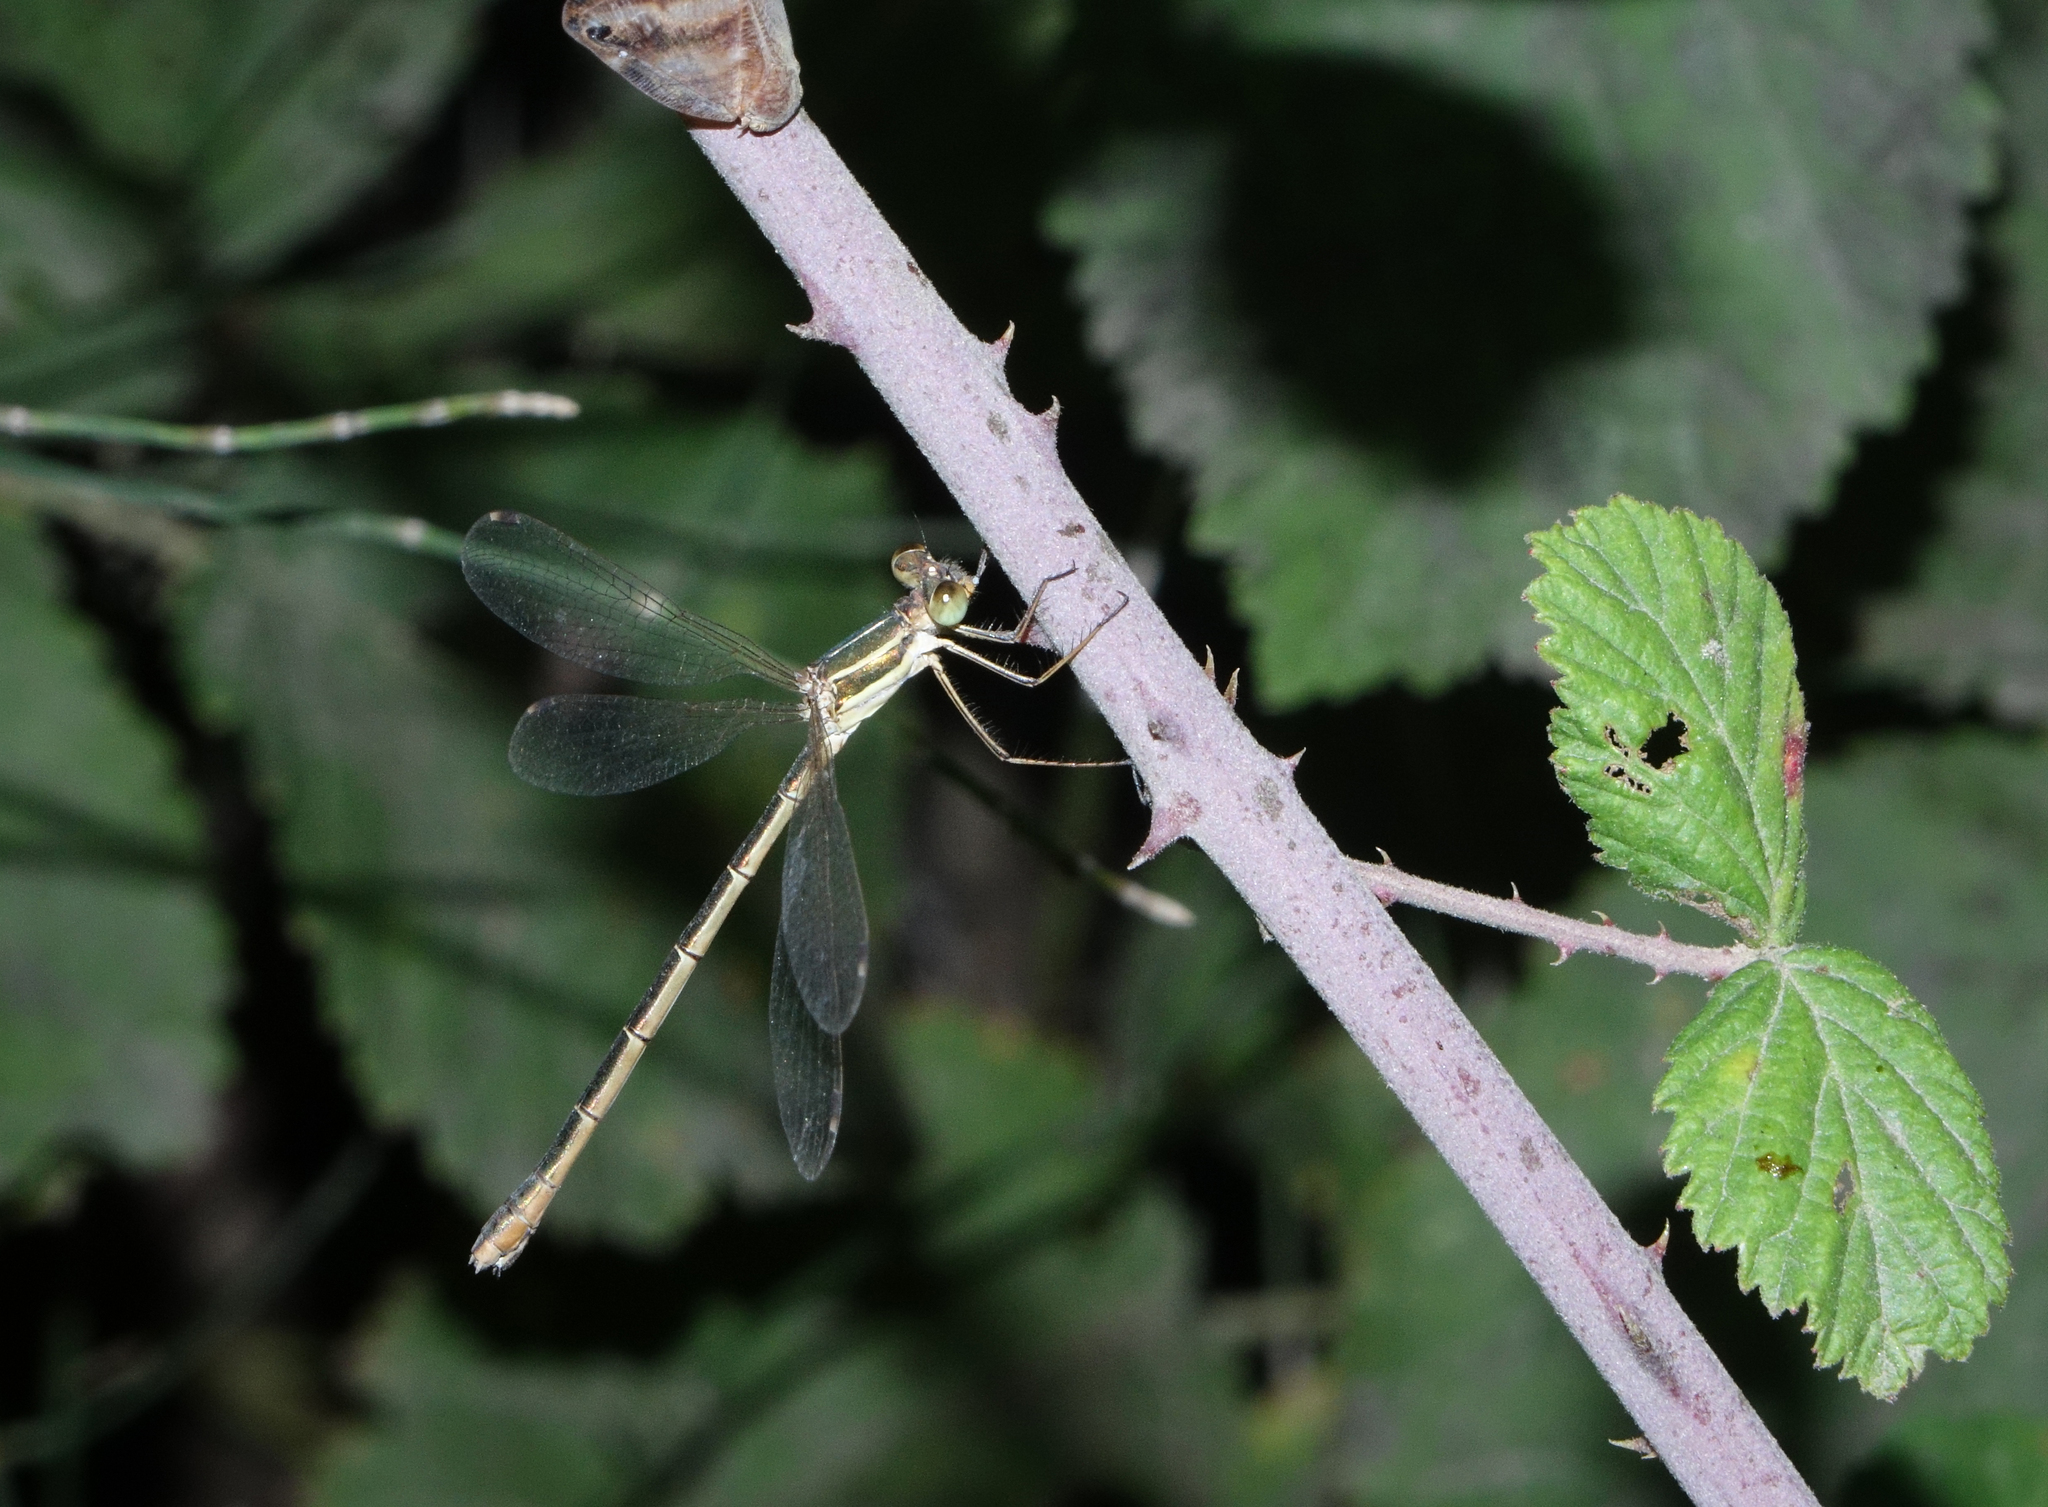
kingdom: Animalia
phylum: Arthropoda
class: Insecta
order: Odonata
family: Lestidae
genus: Lestes
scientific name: Lestes barbarus
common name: Migrant spreadwing
